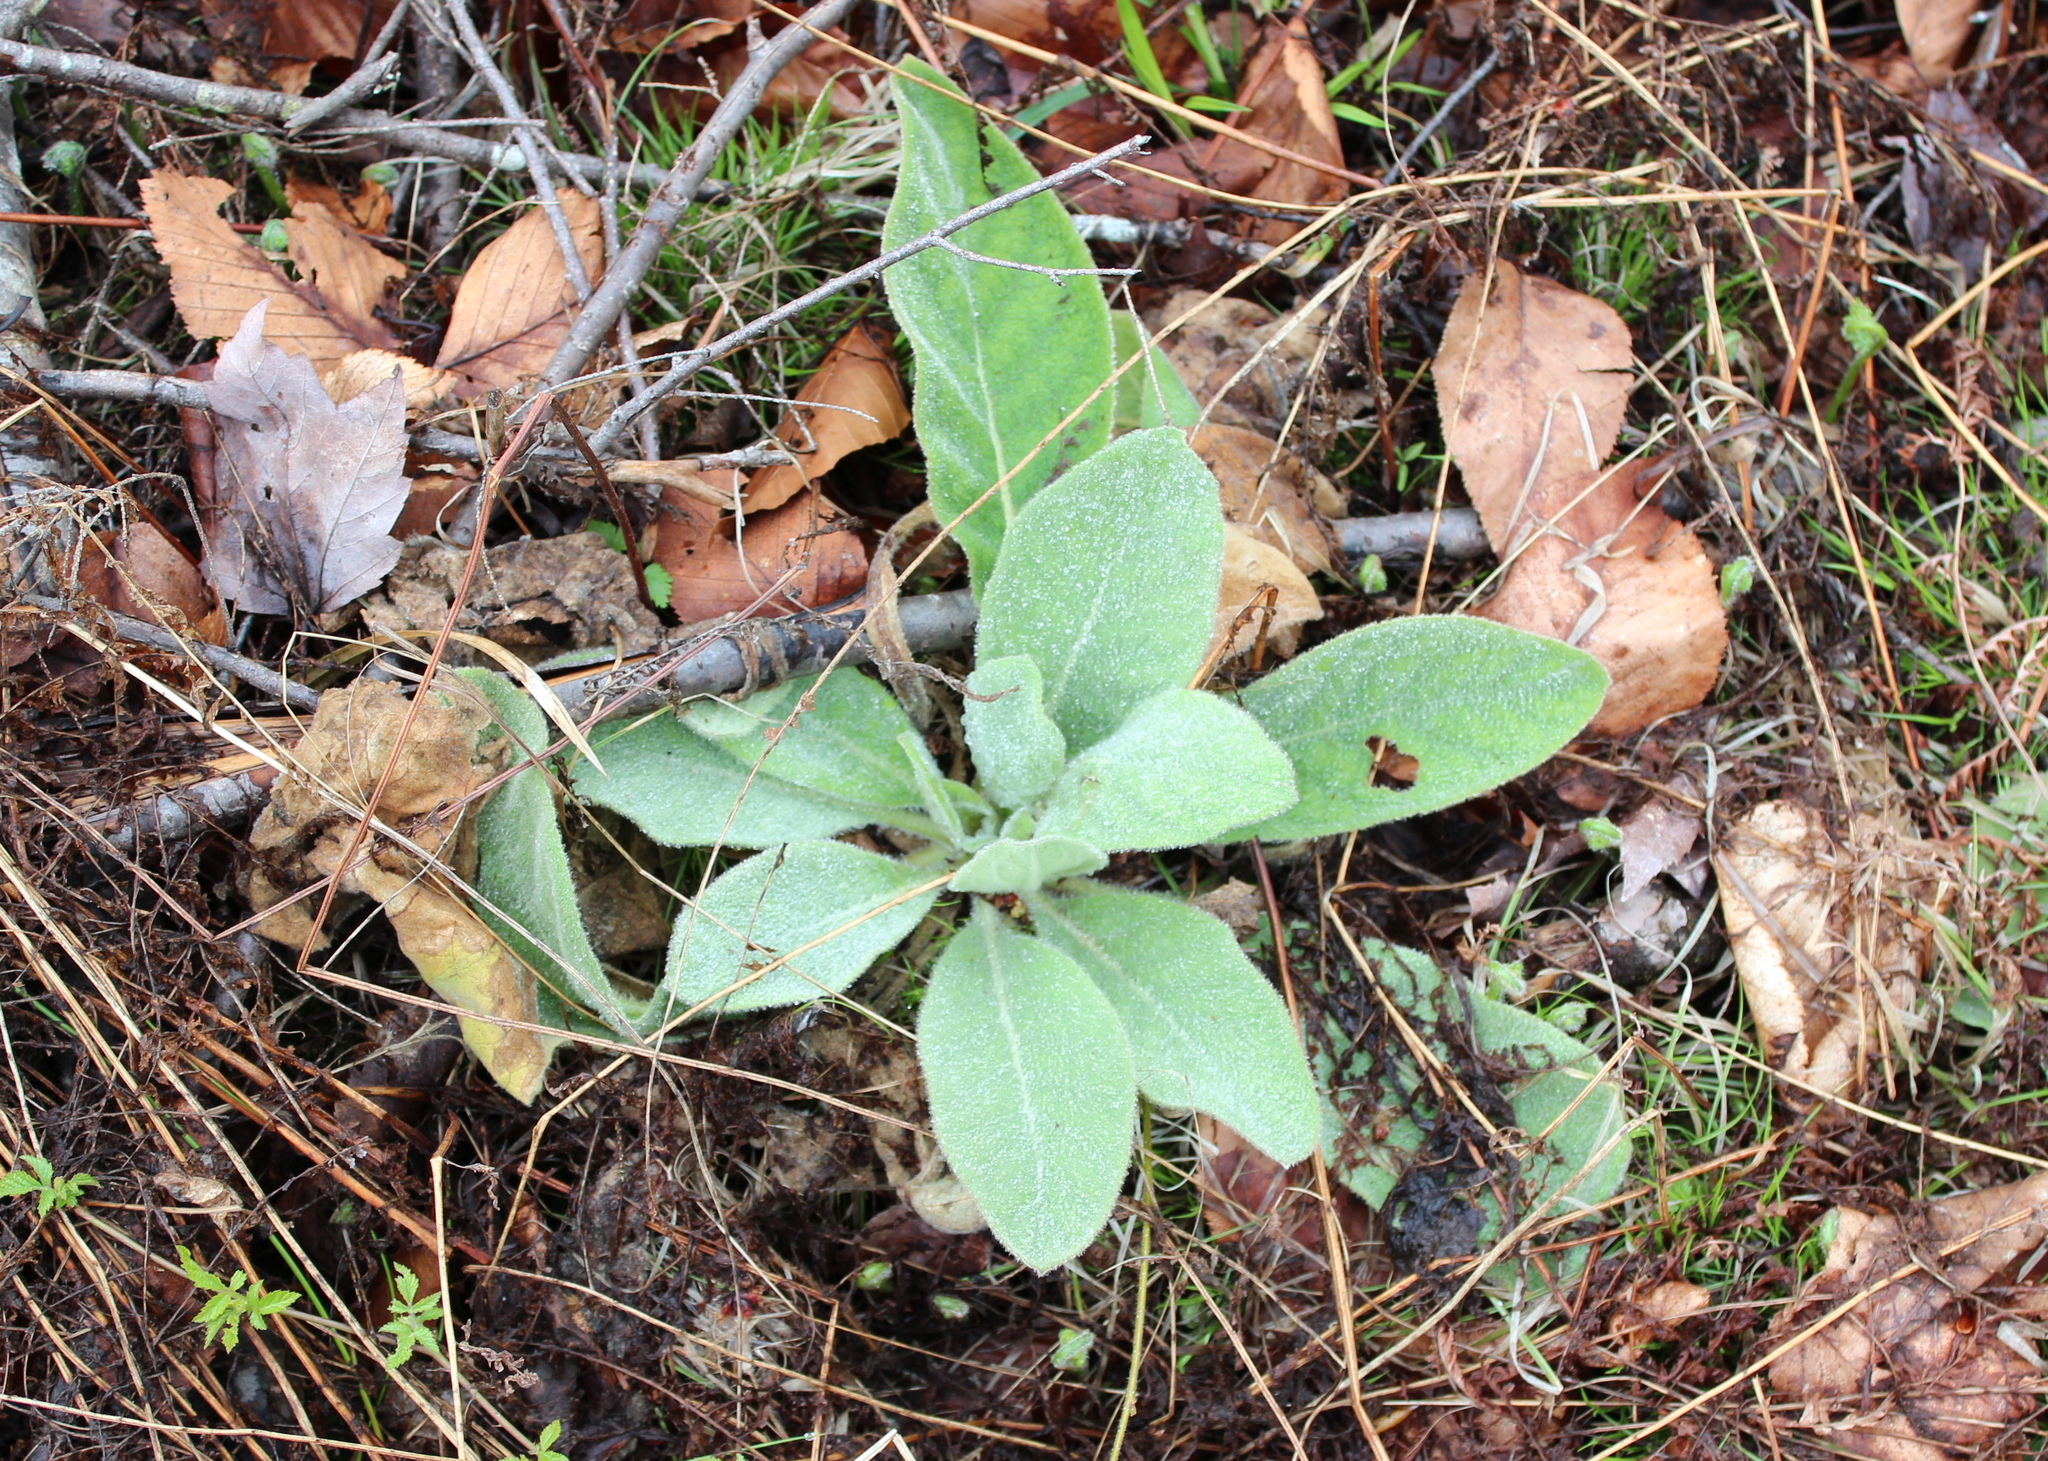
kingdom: Plantae
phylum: Tracheophyta
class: Magnoliopsida
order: Lamiales
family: Scrophulariaceae
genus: Verbascum
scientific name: Verbascum thapsus
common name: Common mullein
